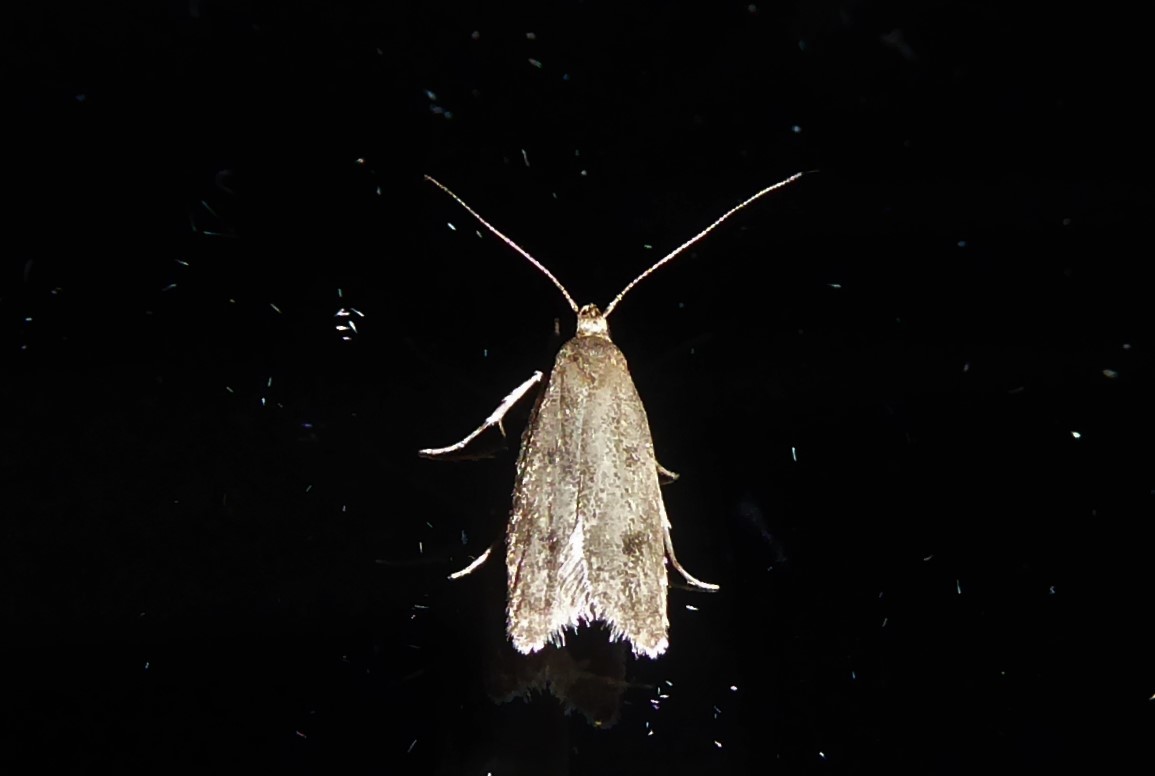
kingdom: Animalia
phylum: Arthropoda
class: Insecta
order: Lepidoptera
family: Oecophoridae
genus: Gymnobathra
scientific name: Gymnobathra tholodella
